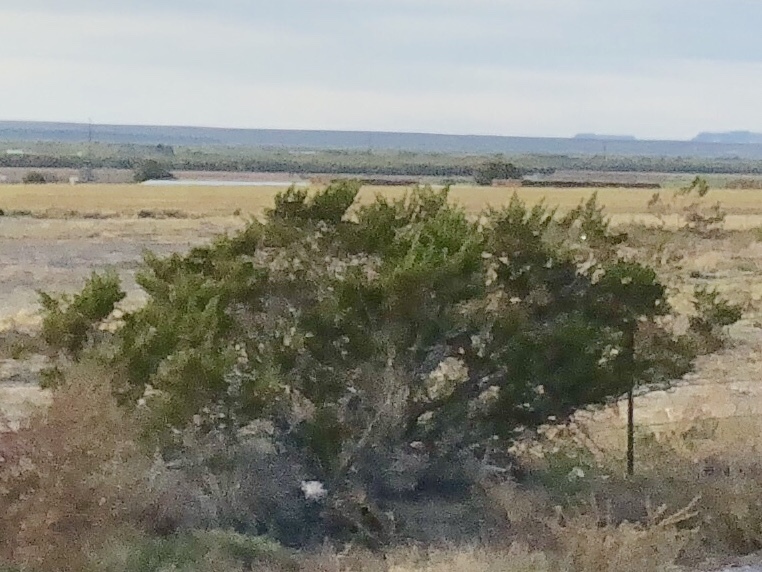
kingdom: Plantae
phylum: Tracheophyta
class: Magnoliopsida
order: Zygophyllales
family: Zygophyllaceae
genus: Larrea
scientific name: Larrea tridentata
